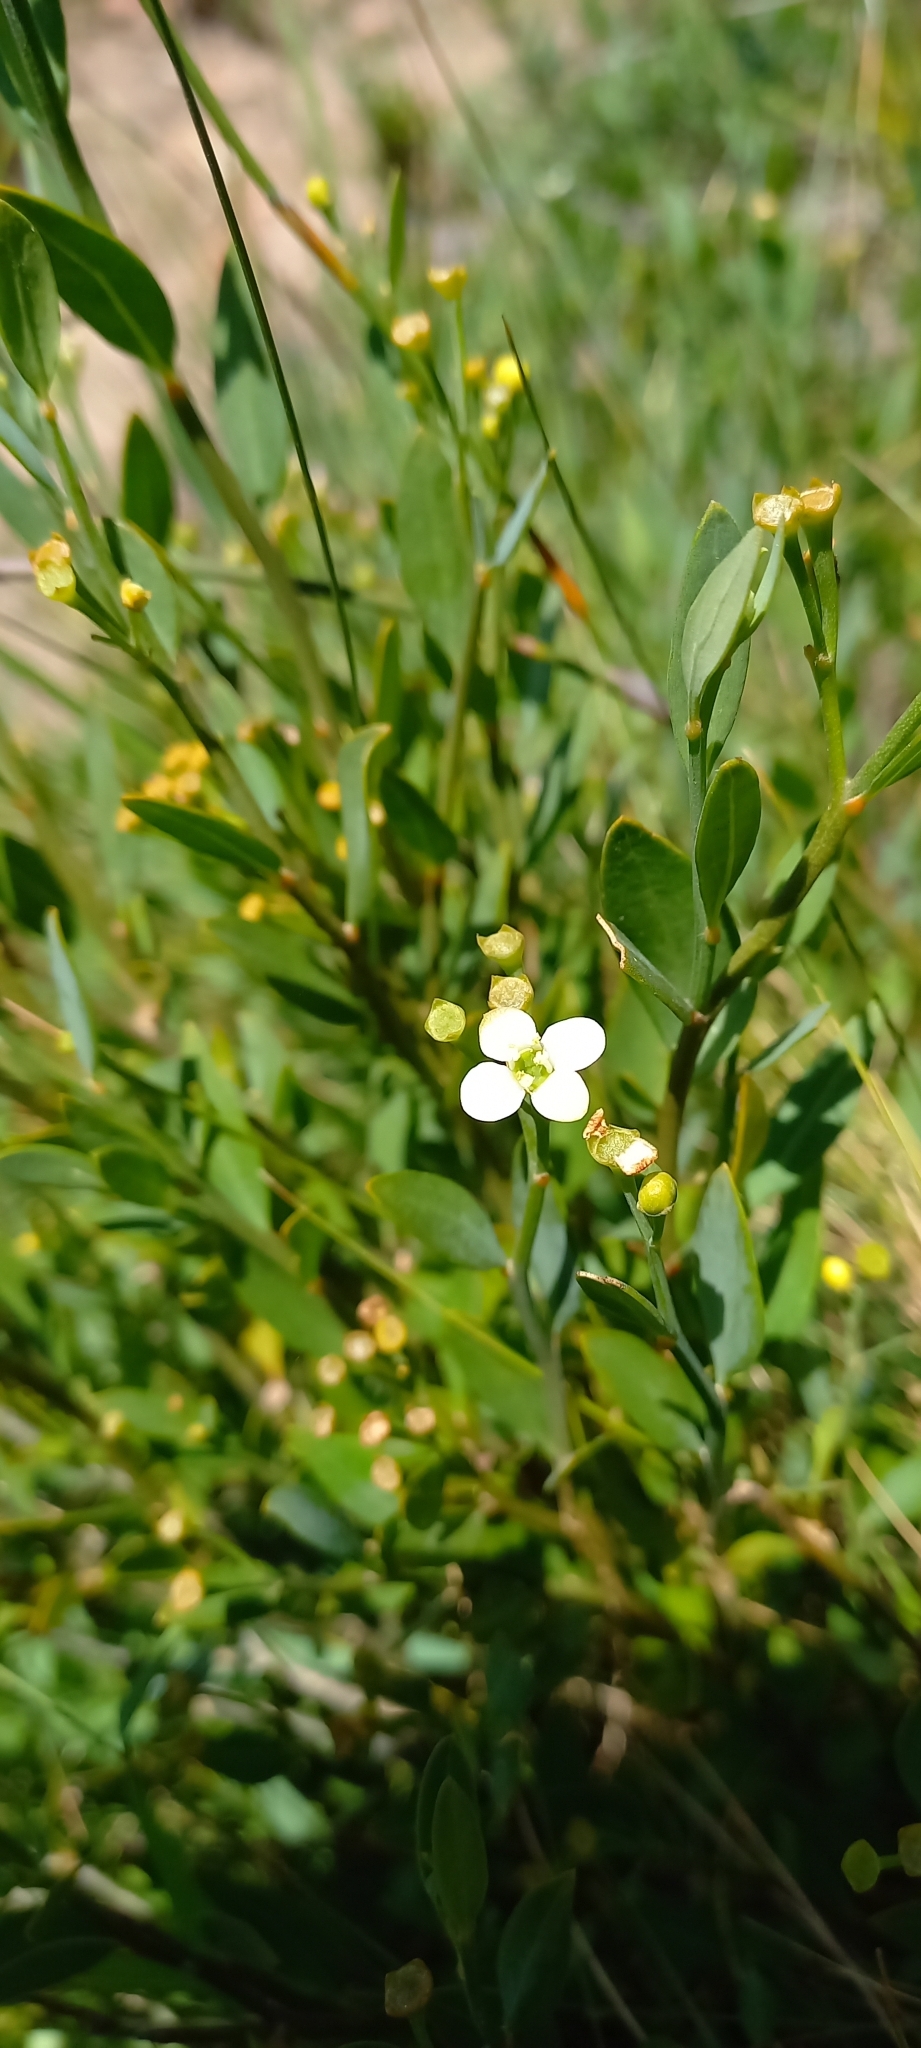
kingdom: Plantae
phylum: Tracheophyta
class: Magnoliopsida
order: Solanales
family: Montiniaceae
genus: Montinia
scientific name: Montinia caryophyllacea
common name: Wild clove-bush
